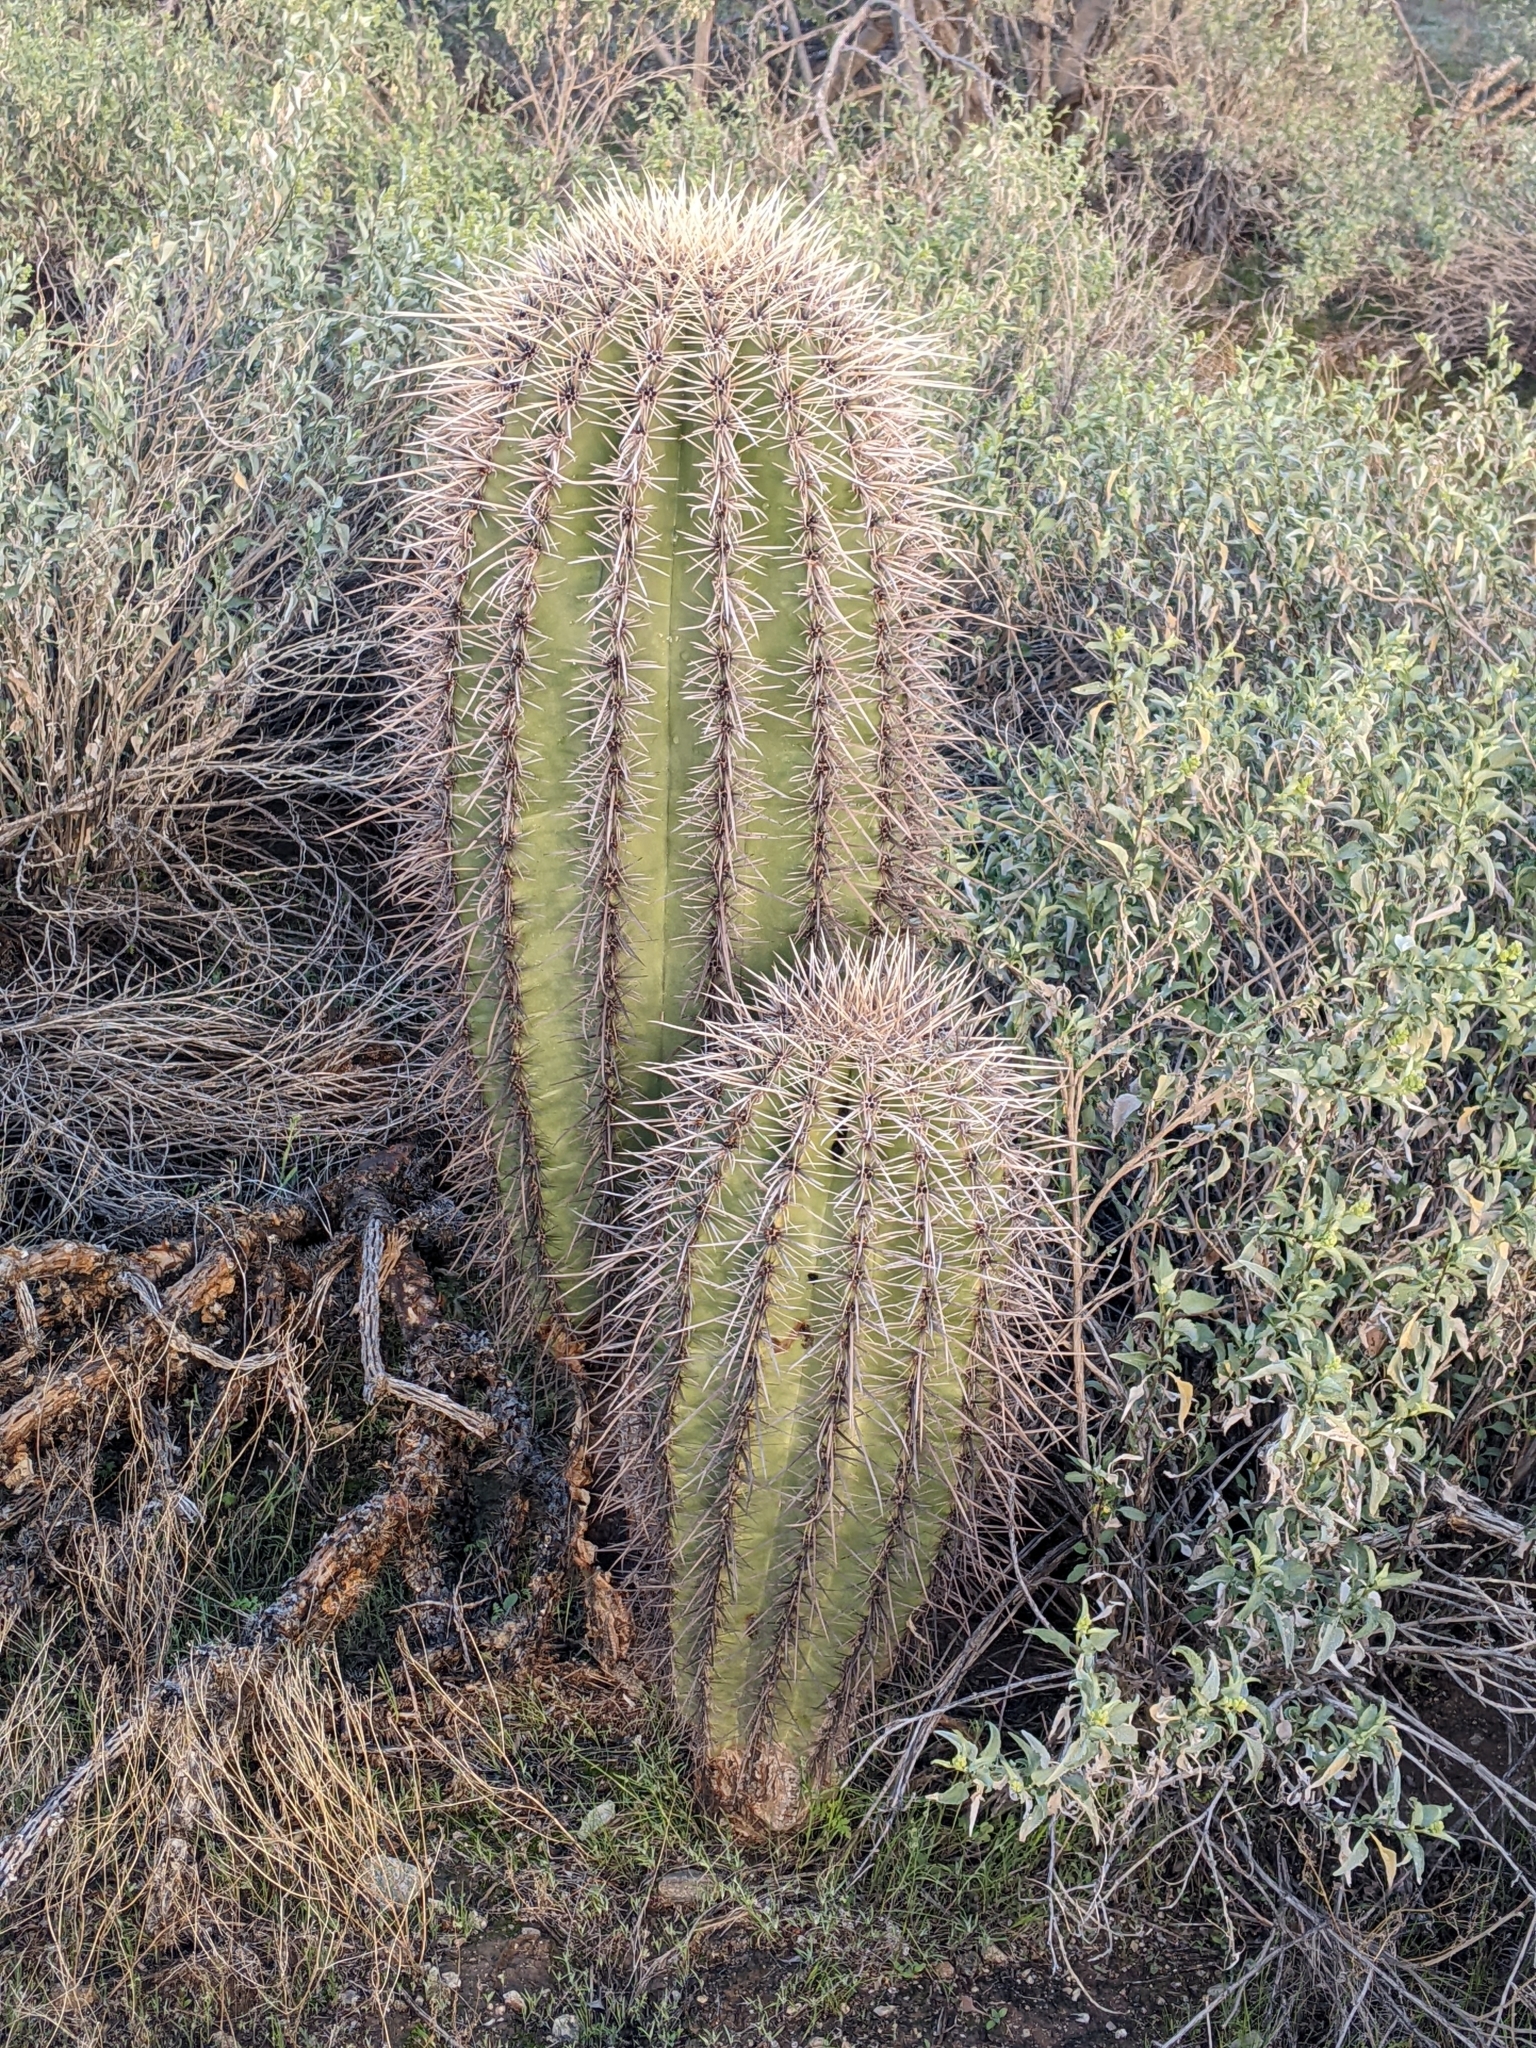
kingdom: Plantae
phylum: Tracheophyta
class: Magnoliopsida
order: Caryophyllales
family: Cactaceae
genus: Carnegiea
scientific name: Carnegiea gigantea
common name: Saguaro
